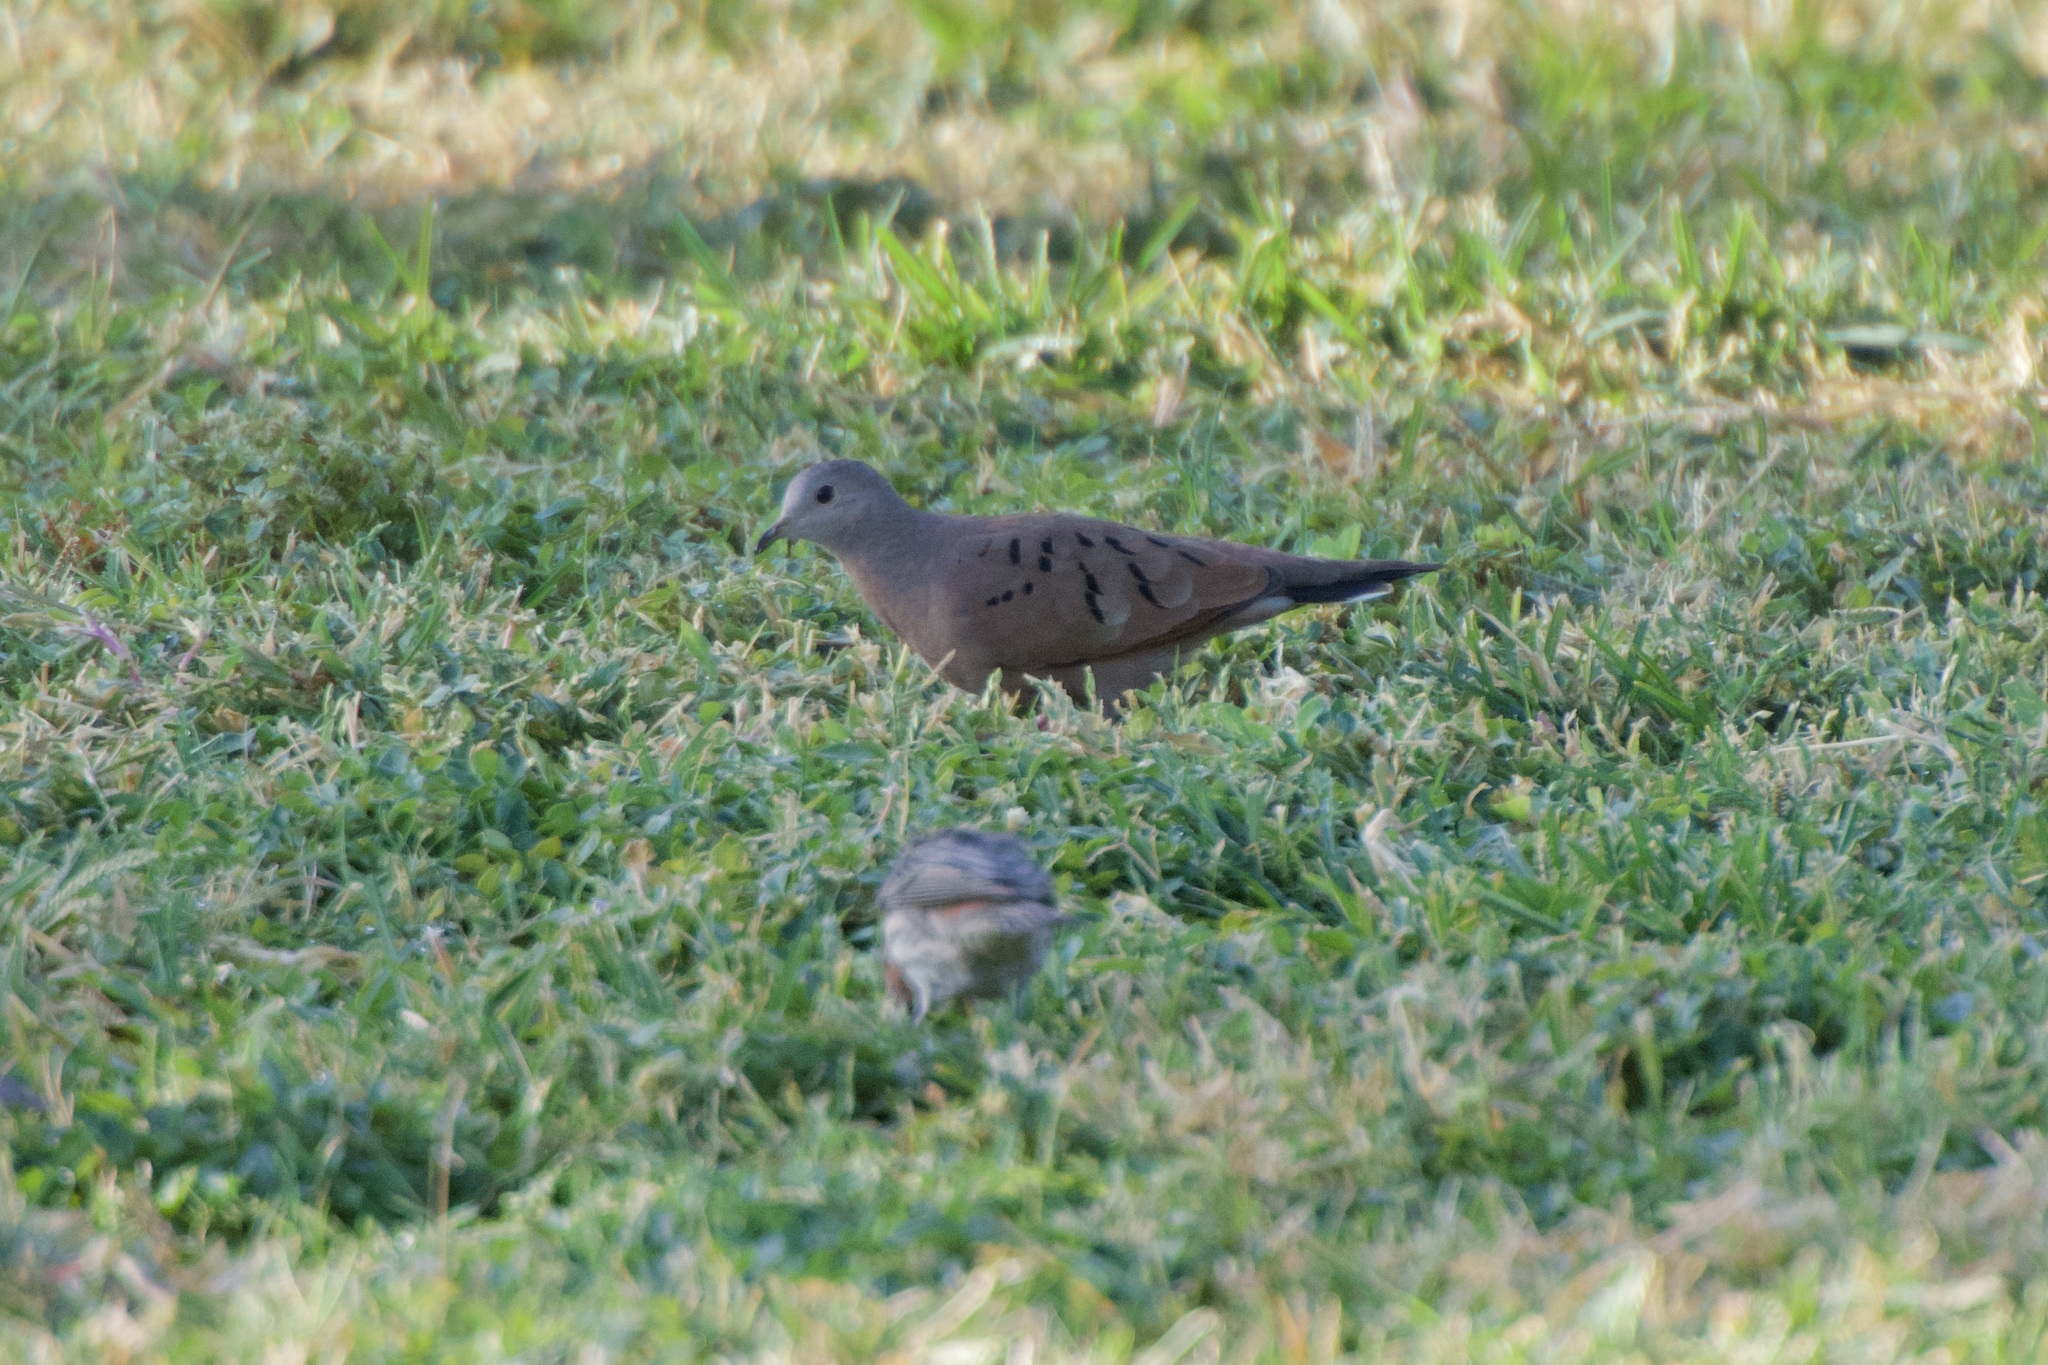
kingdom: Animalia
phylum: Chordata
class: Aves
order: Columbiformes
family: Columbidae
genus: Columbina
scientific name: Columbina talpacoti
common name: Ruddy ground dove
